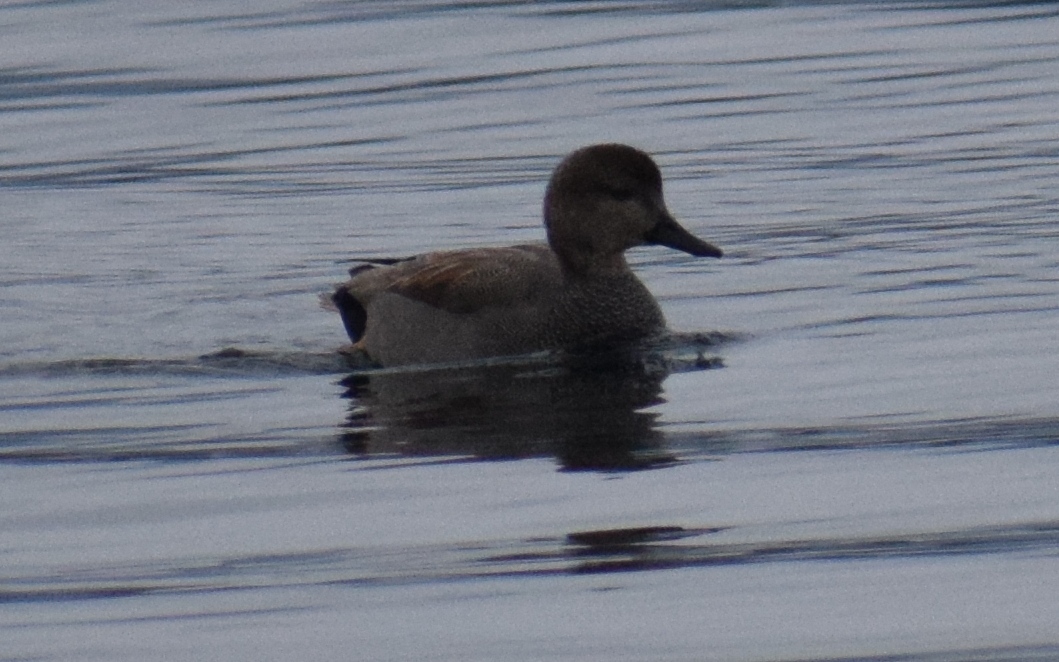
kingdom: Animalia
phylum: Chordata
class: Aves
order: Anseriformes
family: Anatidae
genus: Mareca
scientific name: Mareca strepera
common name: Gadwall
